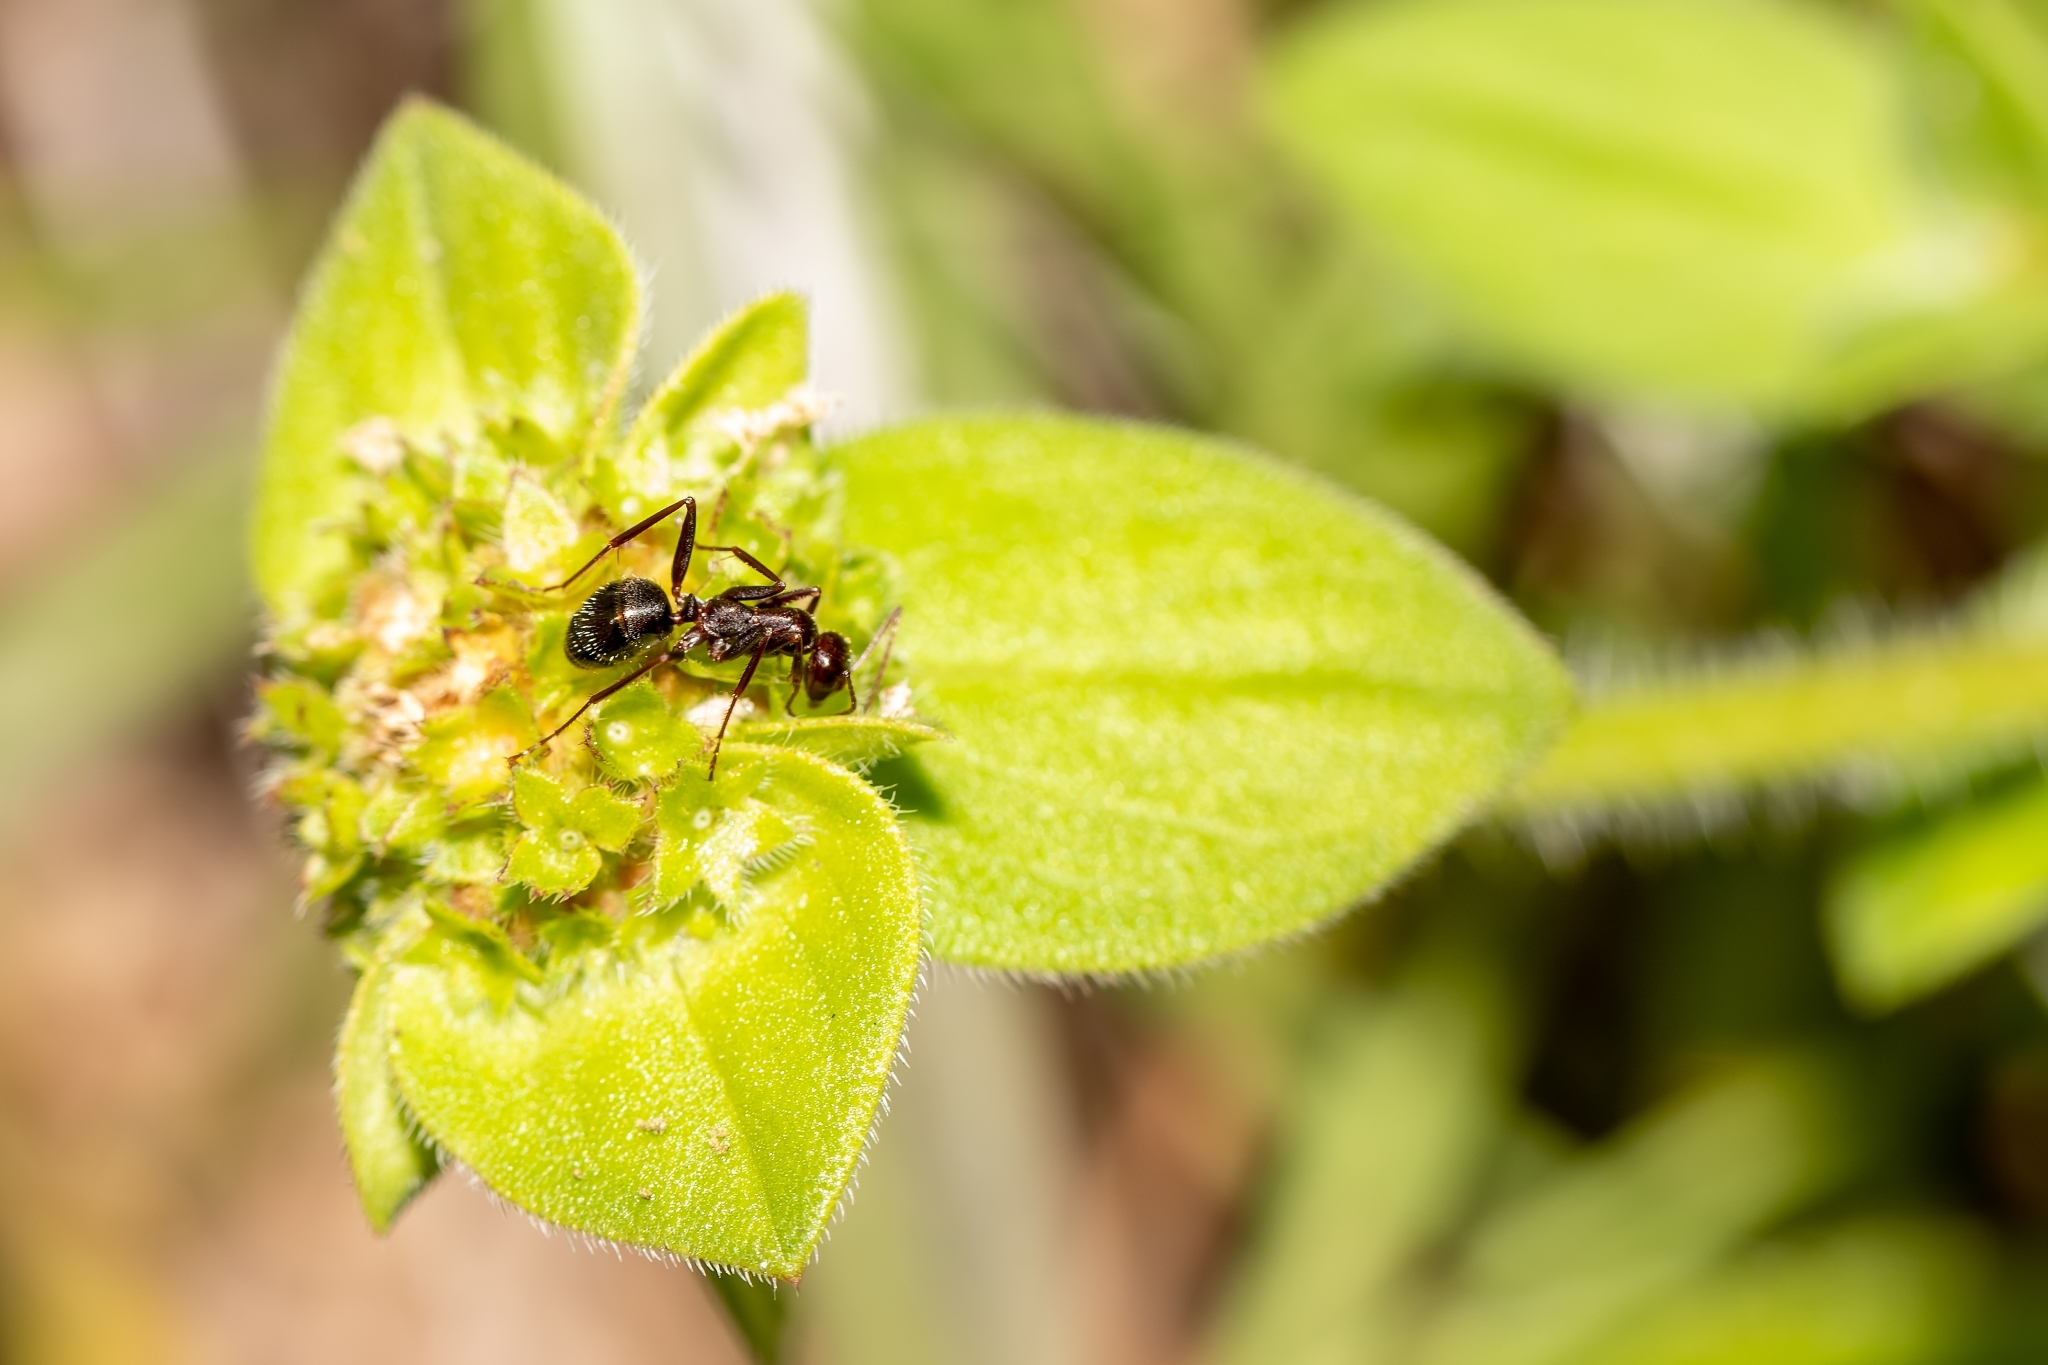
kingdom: Animalia
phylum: Arthropoda
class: Insecta
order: Hymenoptera
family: Formicidae
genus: Formica
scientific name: Formica archboldi
